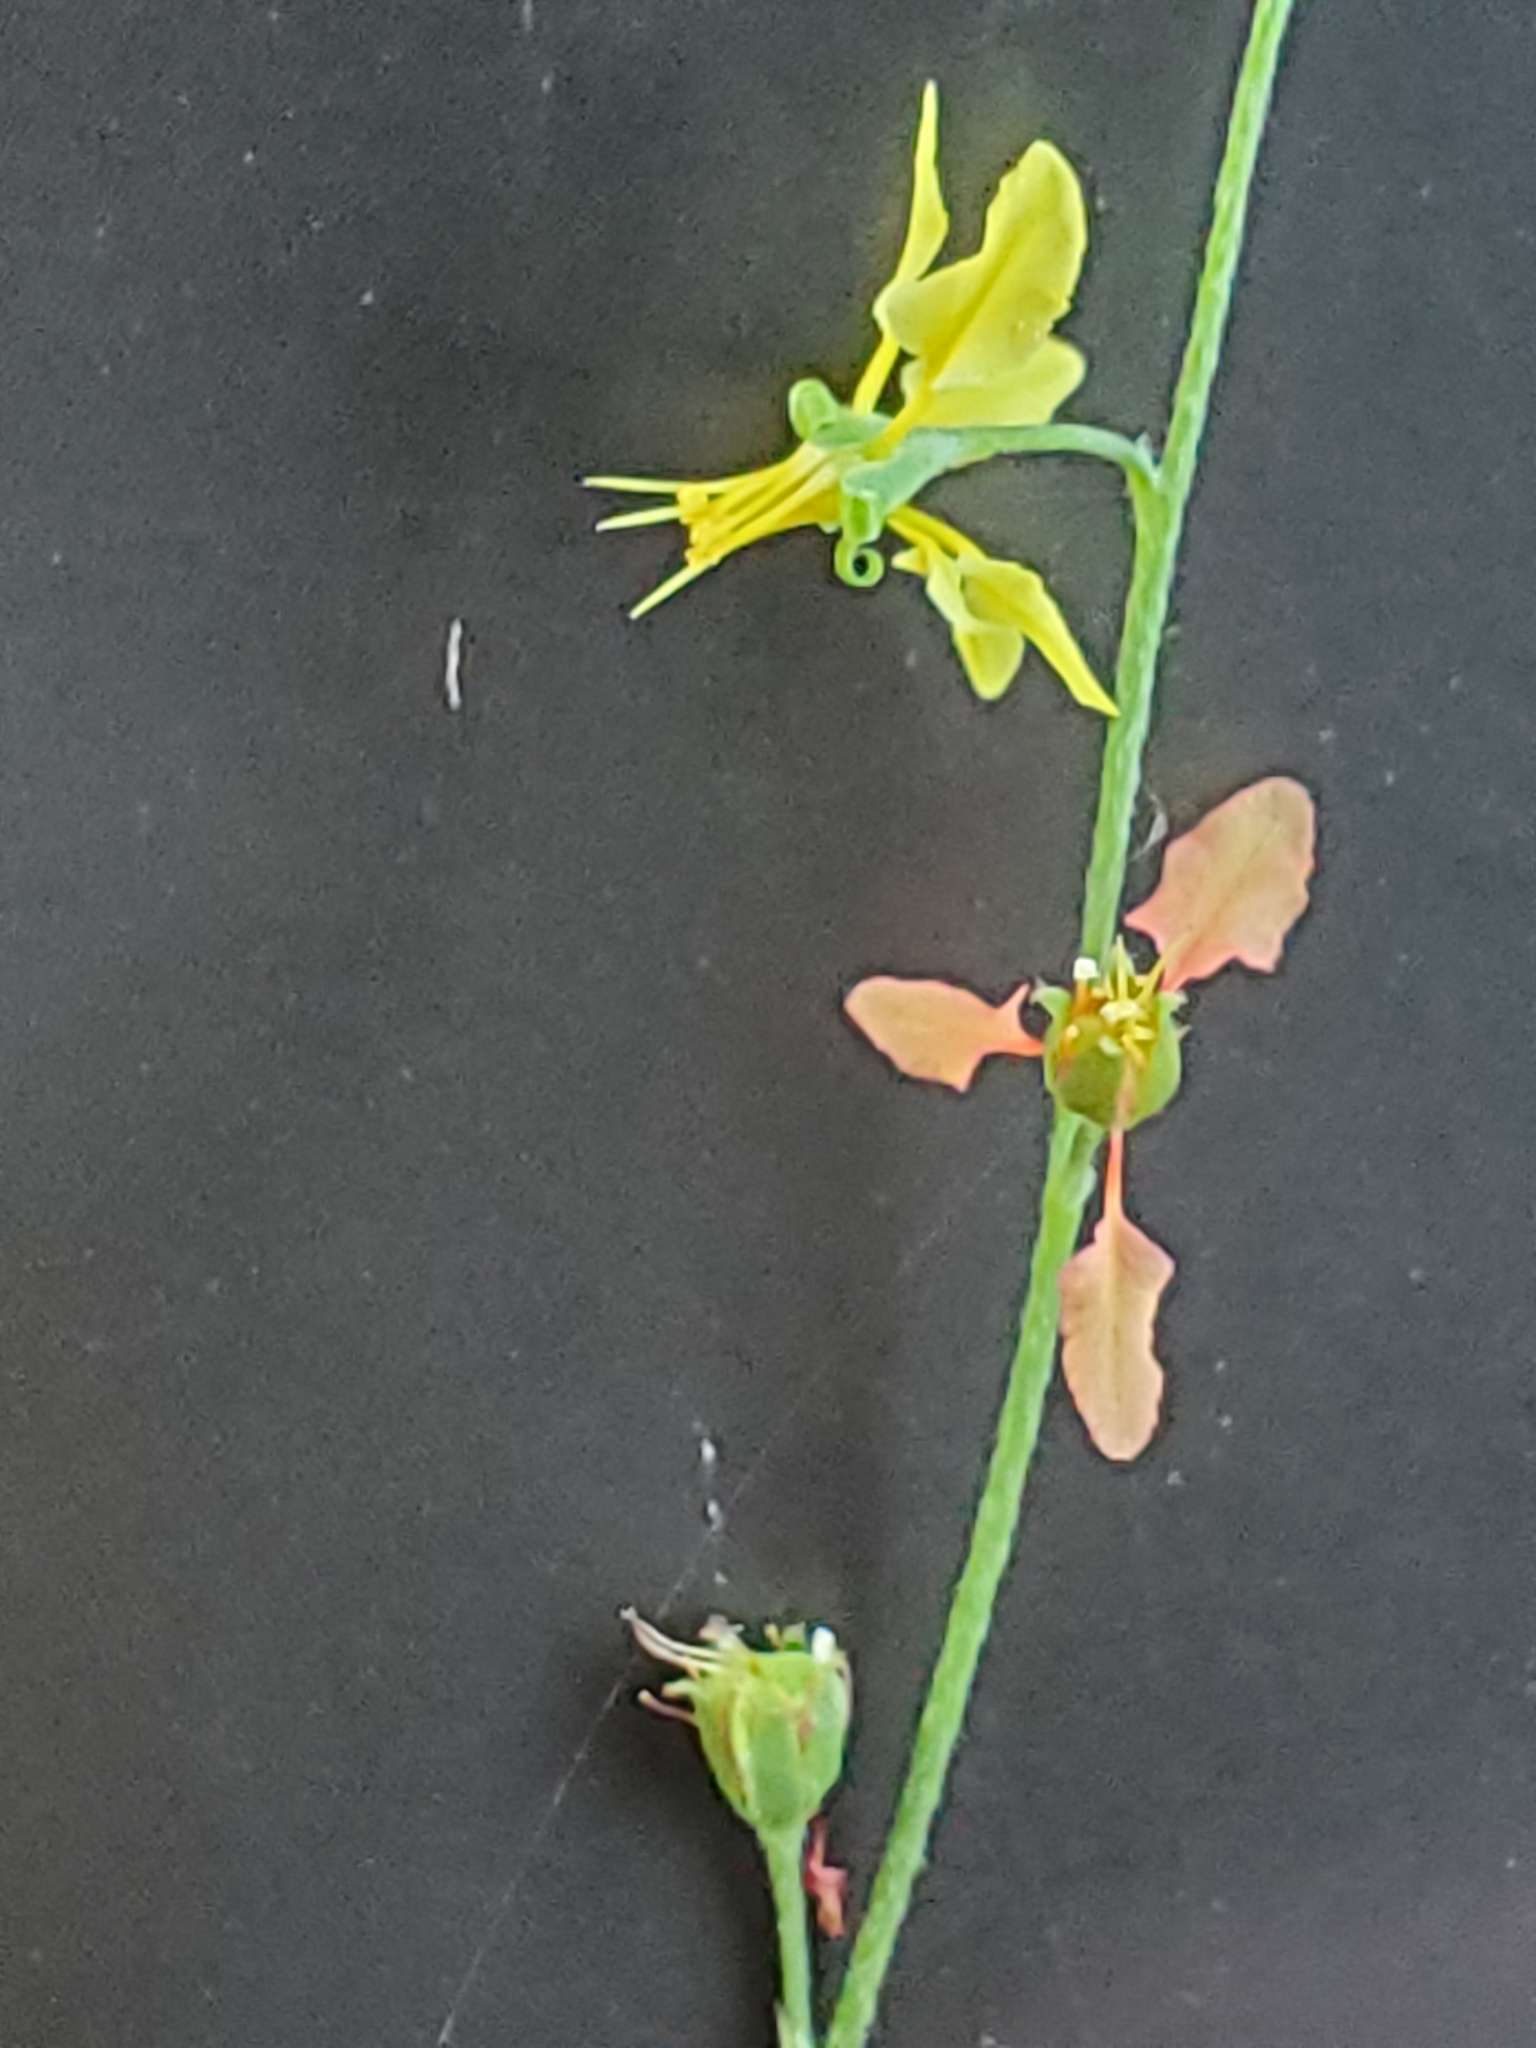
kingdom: Plantae
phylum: Tracheophyta
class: Magnoliopsida
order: Malpighiales
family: Malpighiaceae
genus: Galphimia
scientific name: Galphimia angustifolia
